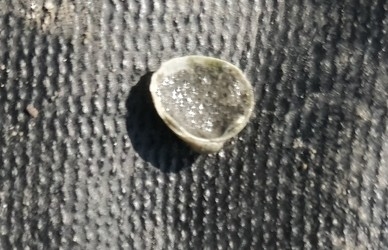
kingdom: Animalia
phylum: Mollusca
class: Bivalvia
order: Sphaeriida
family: Sphaeriidae
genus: Sphaerium
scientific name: Sphaerium striatinum
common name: Striated fingernailclam
